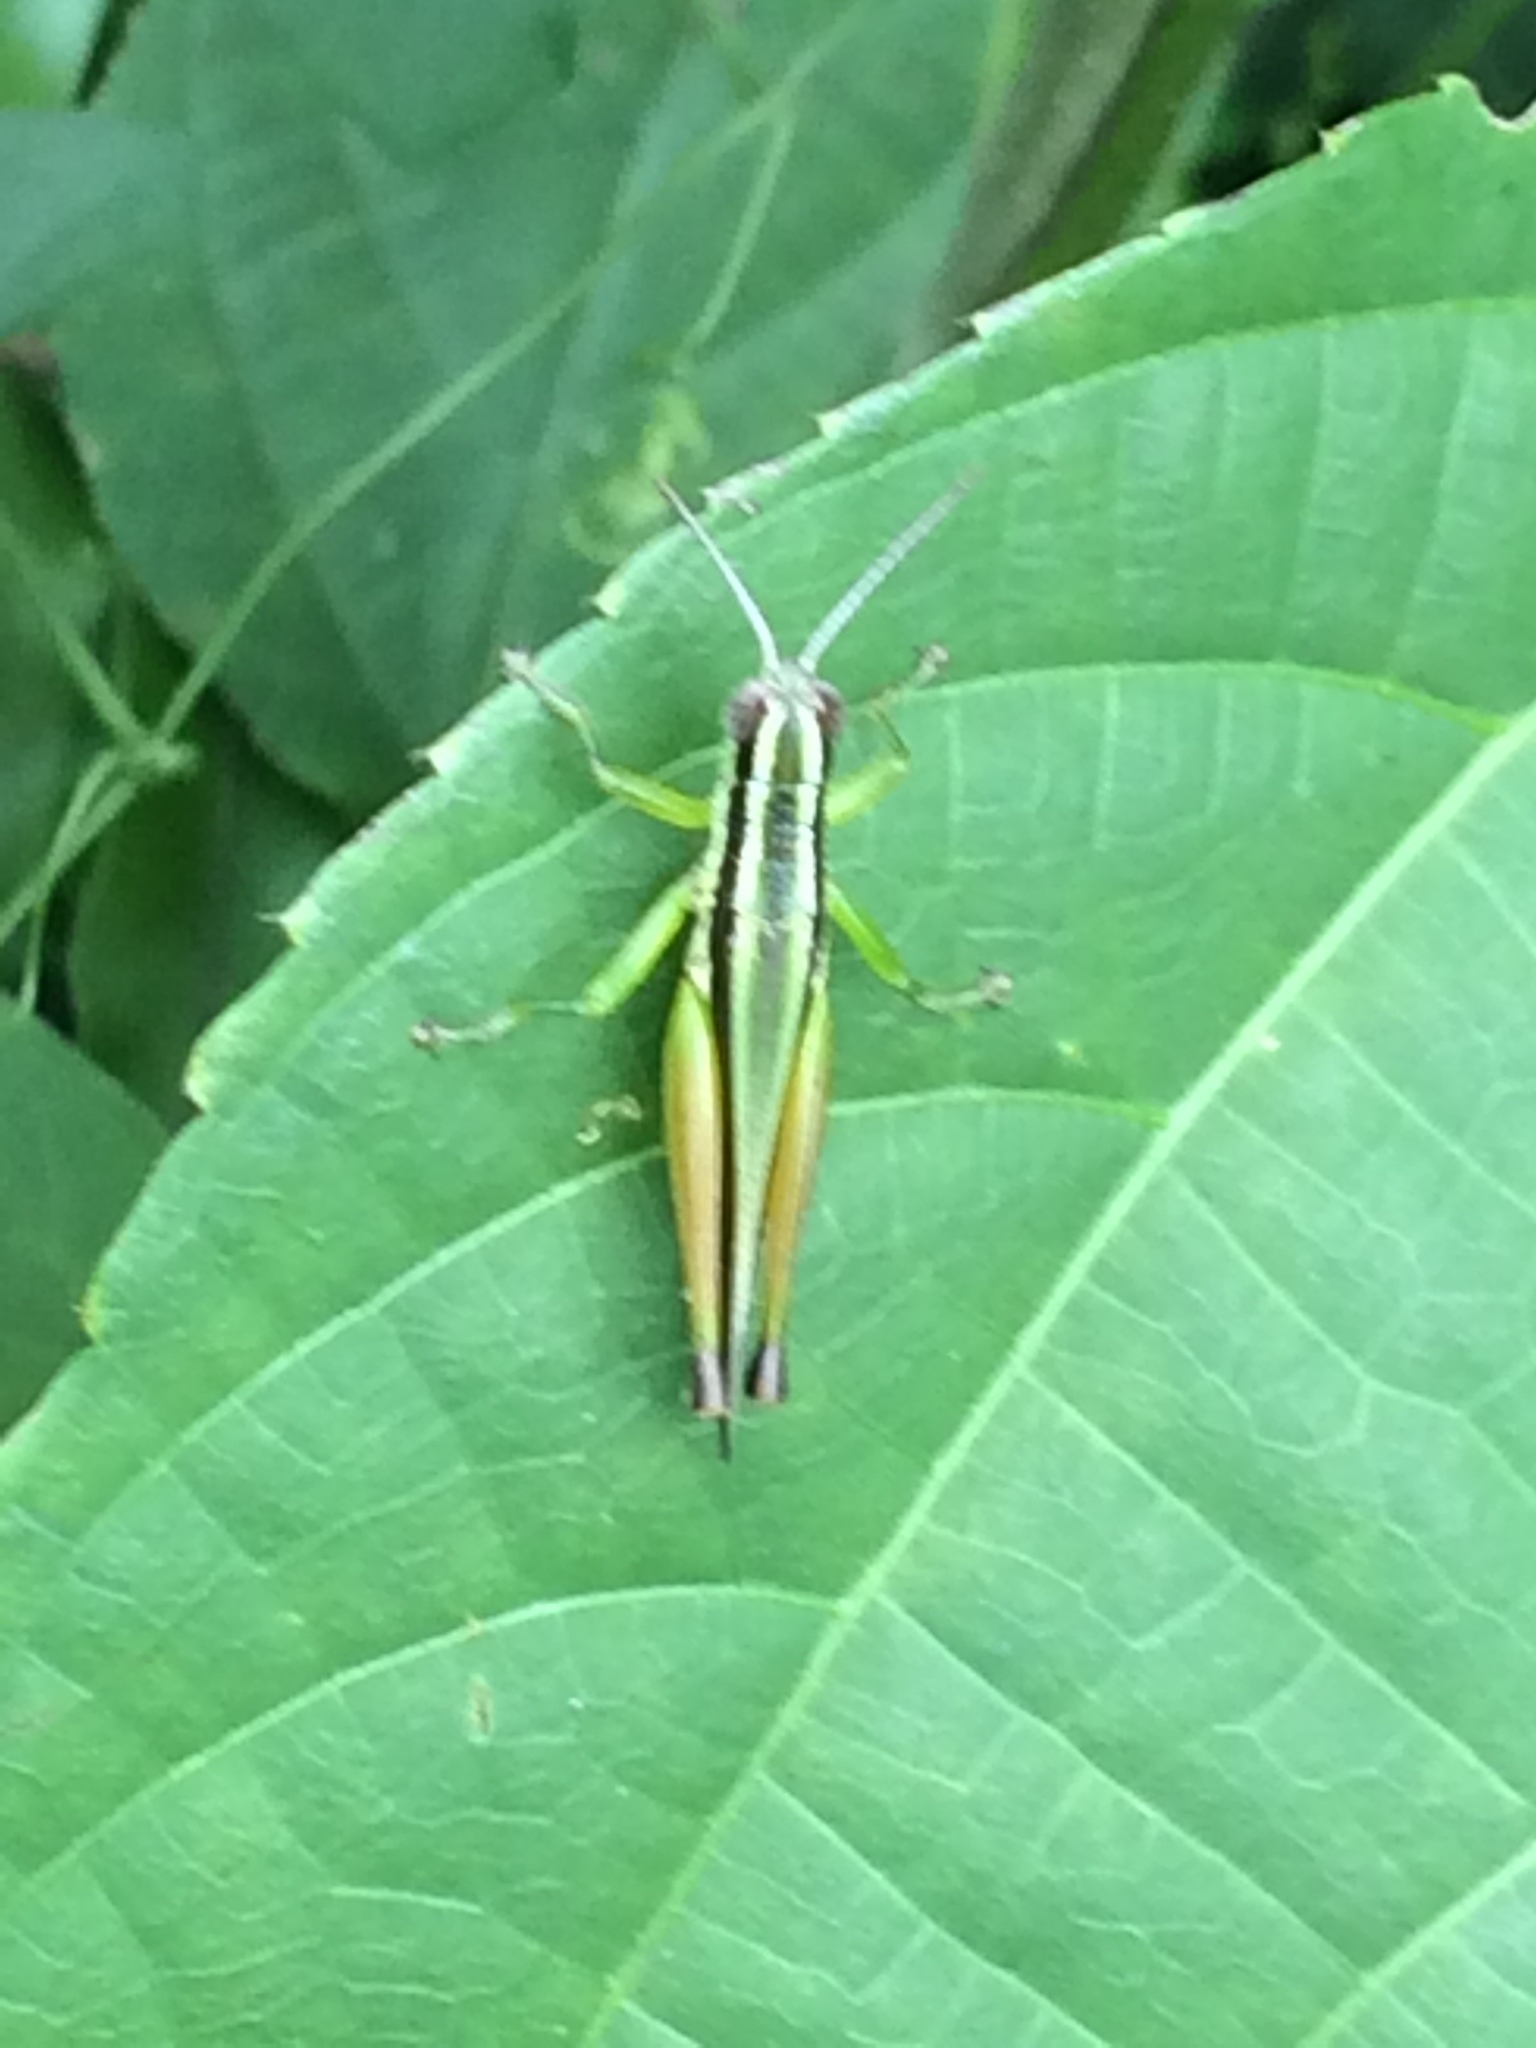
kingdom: Animalia
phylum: Arthropoda
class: Insecta
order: Orthoptera
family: Acrididae
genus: Oxya
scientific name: Oxya intricata
